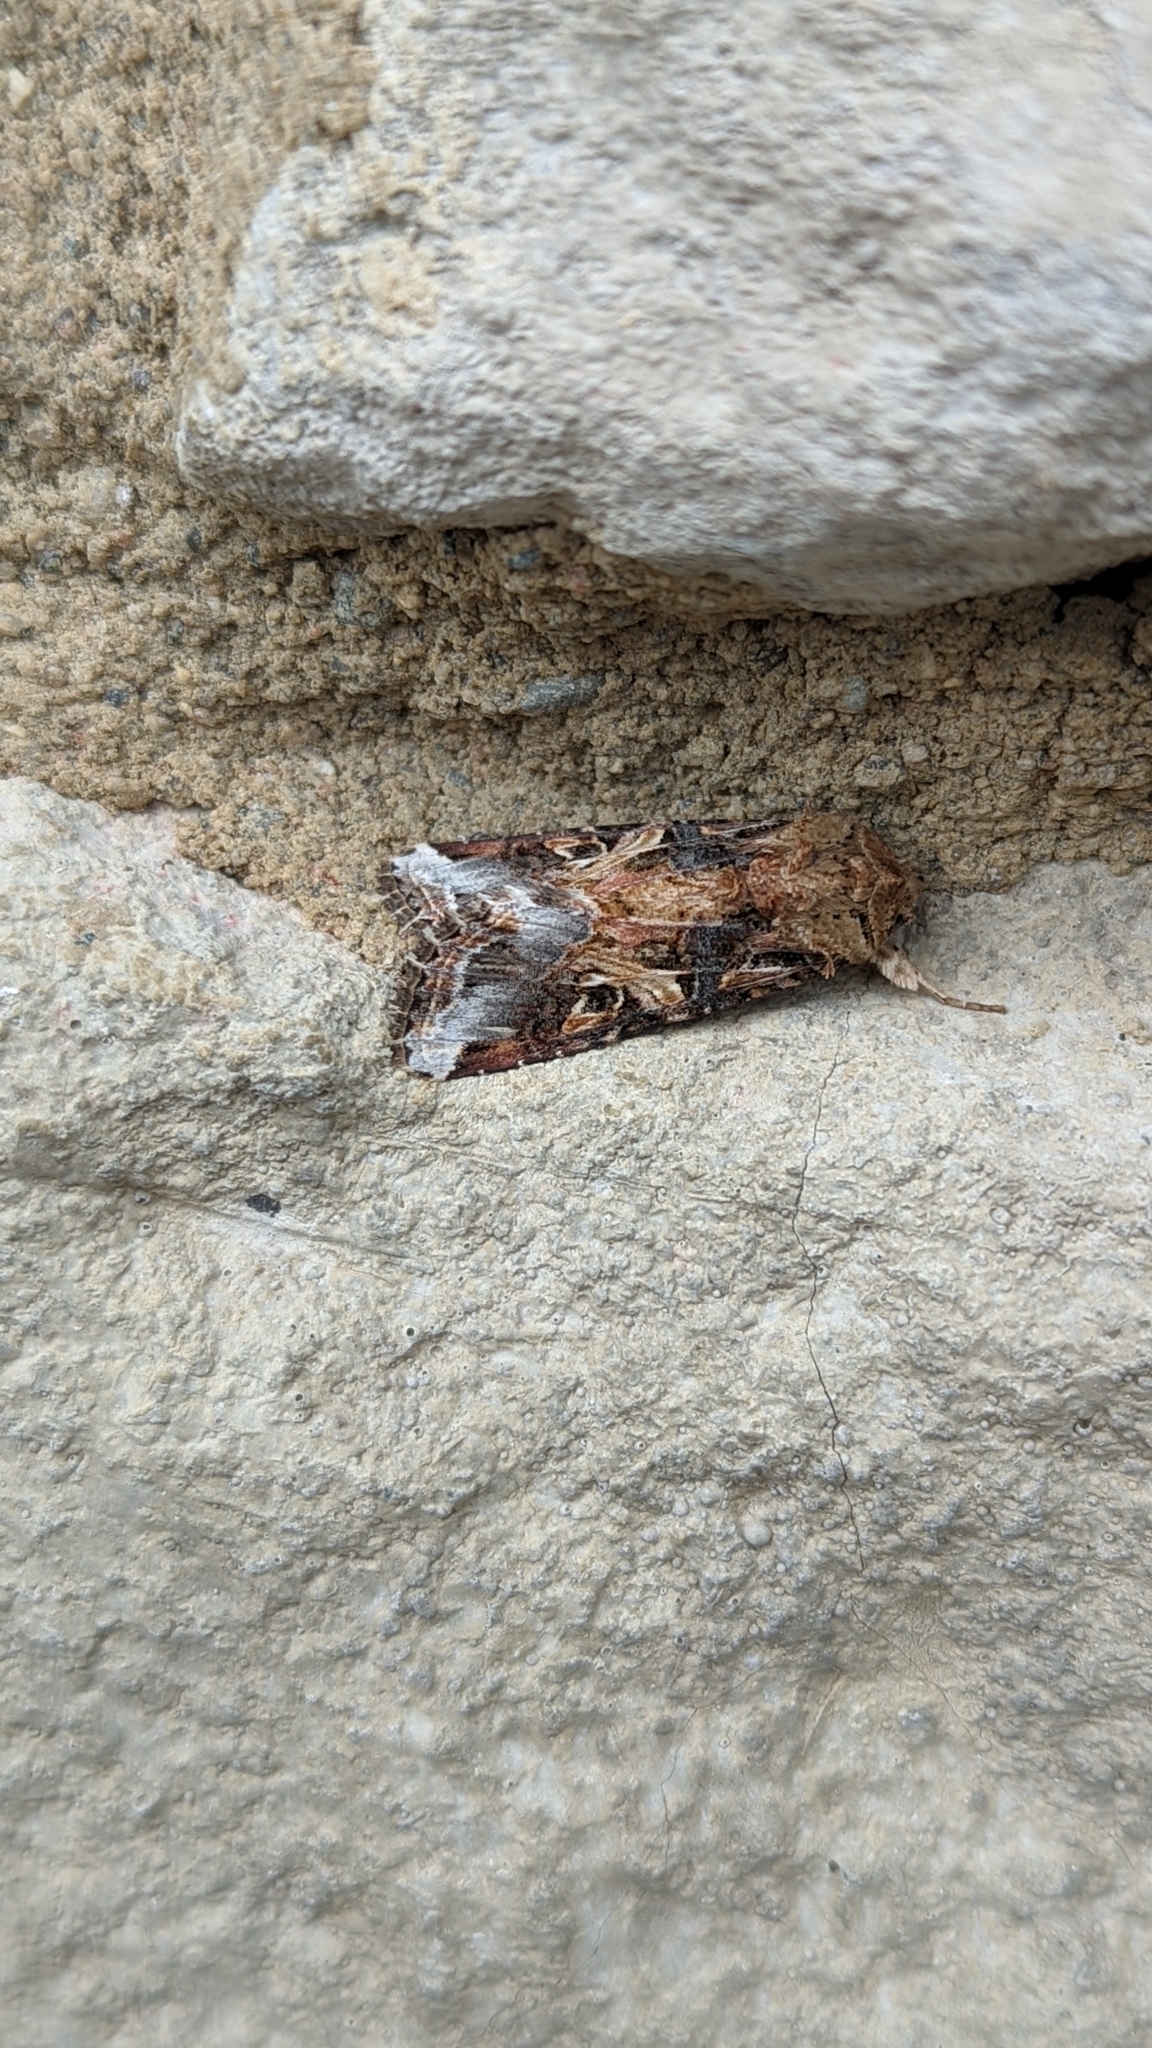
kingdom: Animalia
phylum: Arthropoda
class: Insecta
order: Lepidoptera
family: Noctuidae
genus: Spodoptera
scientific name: Spodoptera ornithogalli
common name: Yellow-striped armyworm
